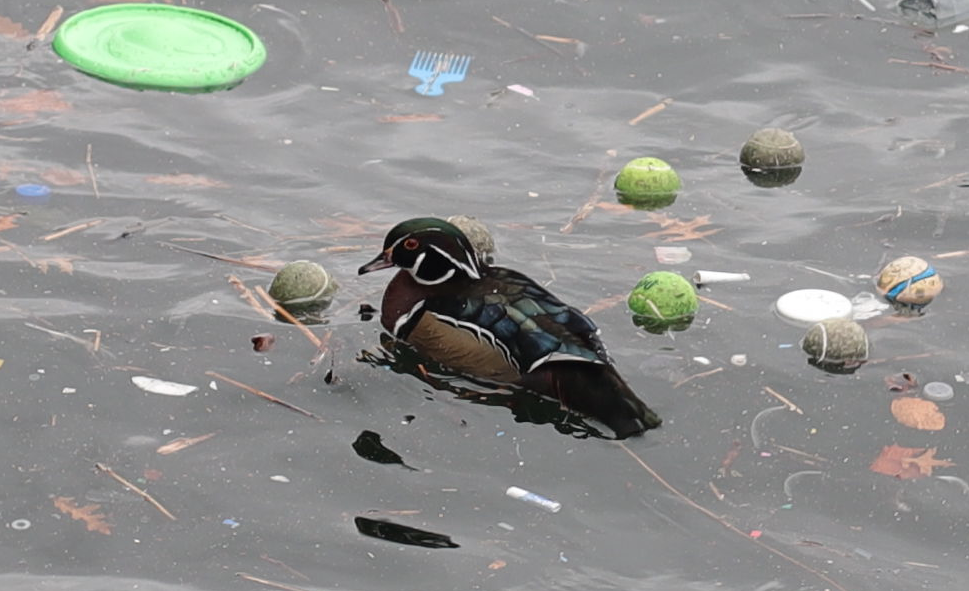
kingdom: Animalia
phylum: Chordata
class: Aves
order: Anseriformes
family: Anatidae
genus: Aix
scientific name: Aix sponsa
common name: Wood duck
